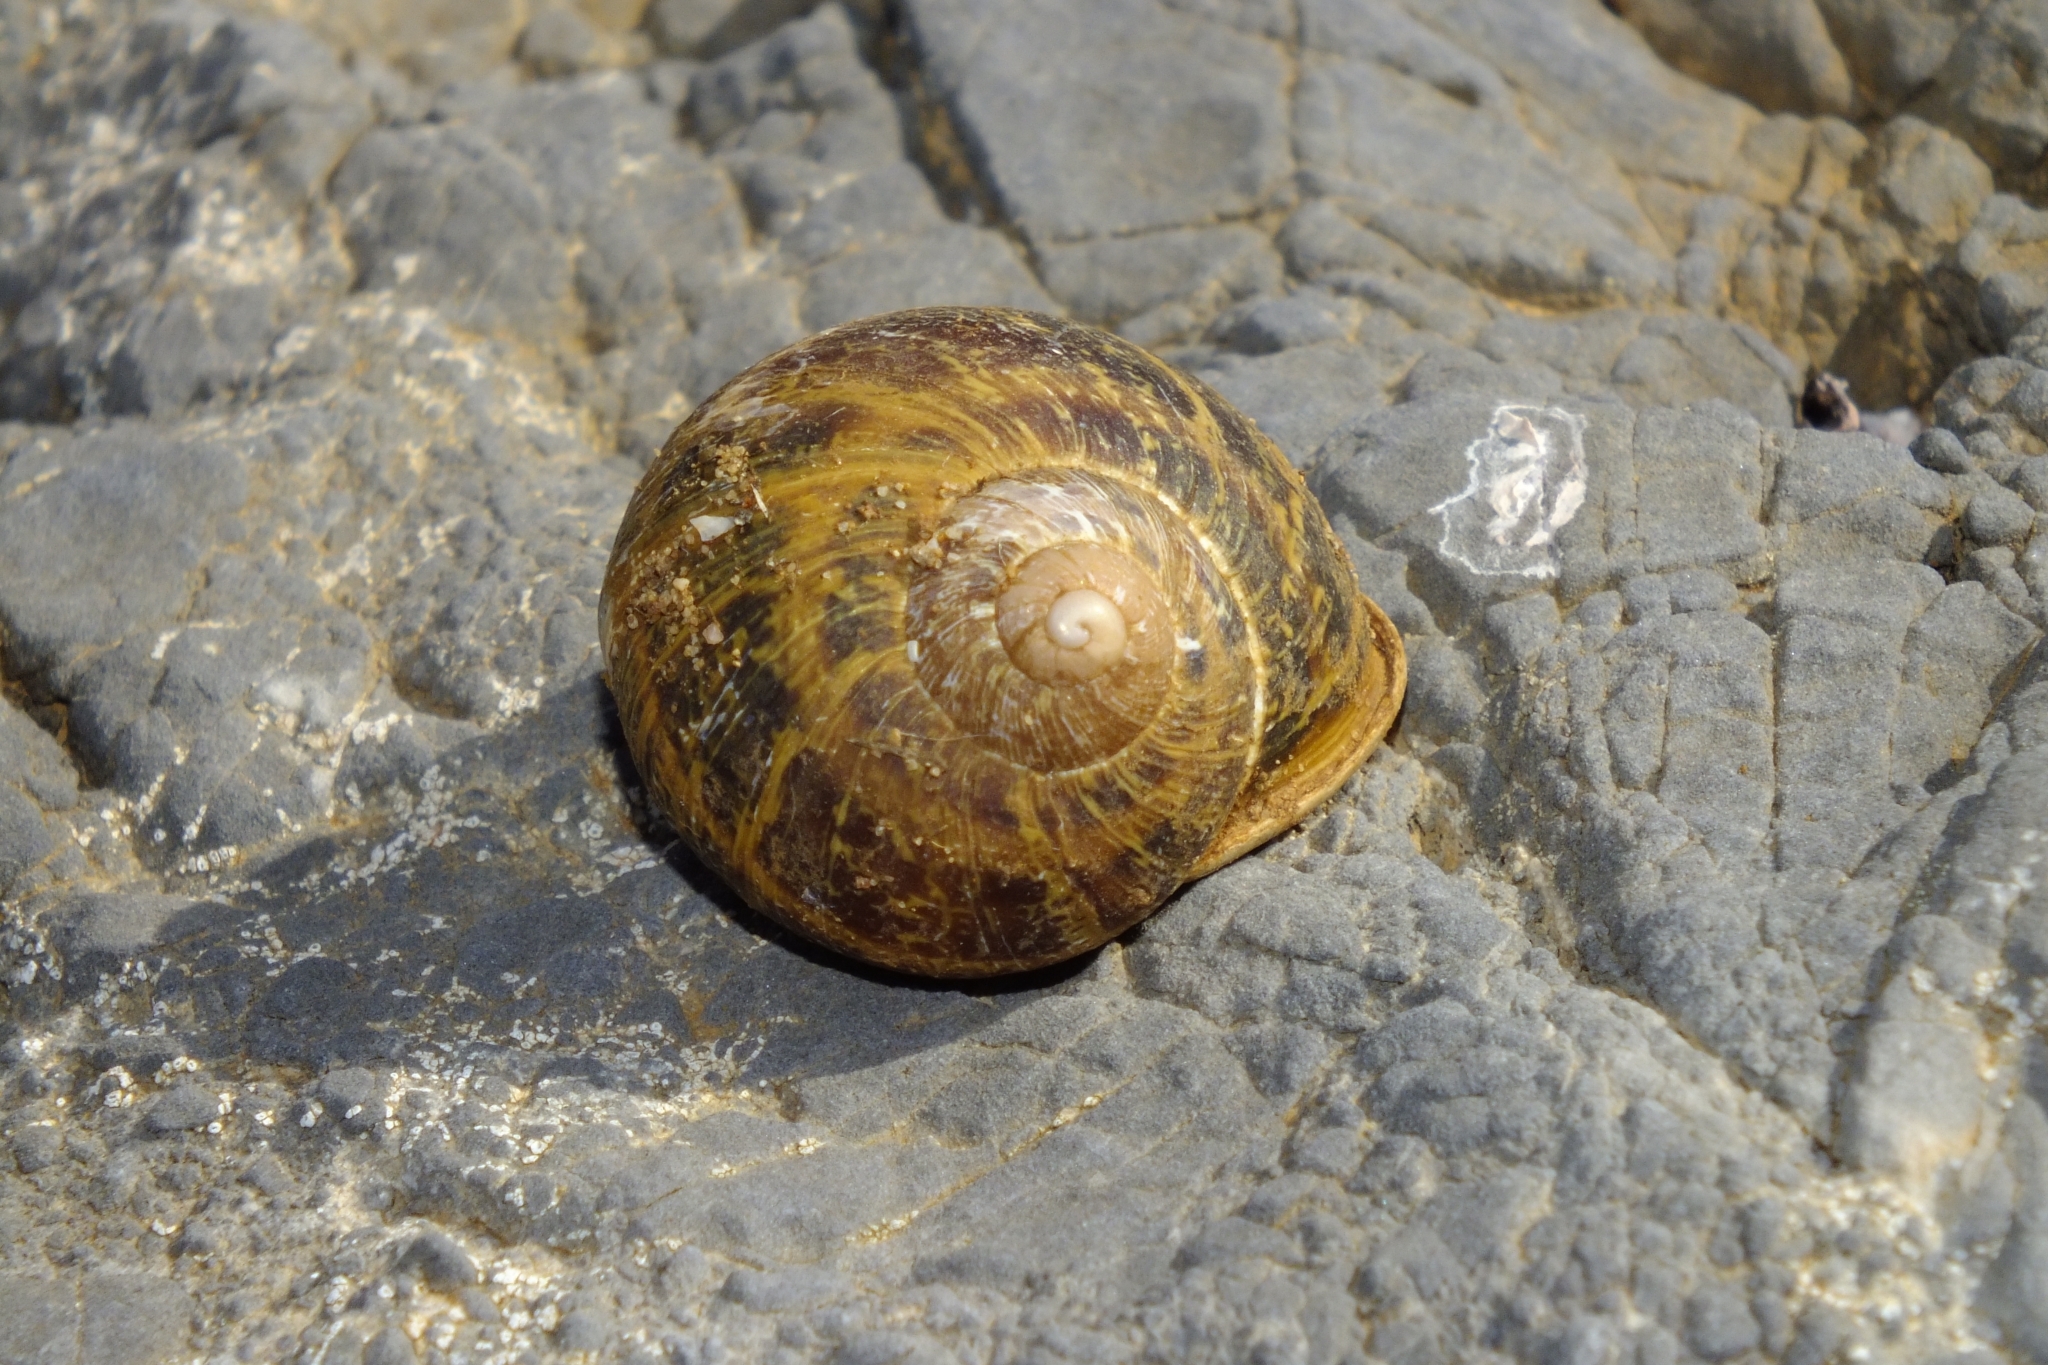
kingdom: Animalia
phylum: Mollusca
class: Gastropoda
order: Stylommatophora
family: Helicidae
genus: Cornu
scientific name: Cornu aspersum
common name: Brown garden snail
